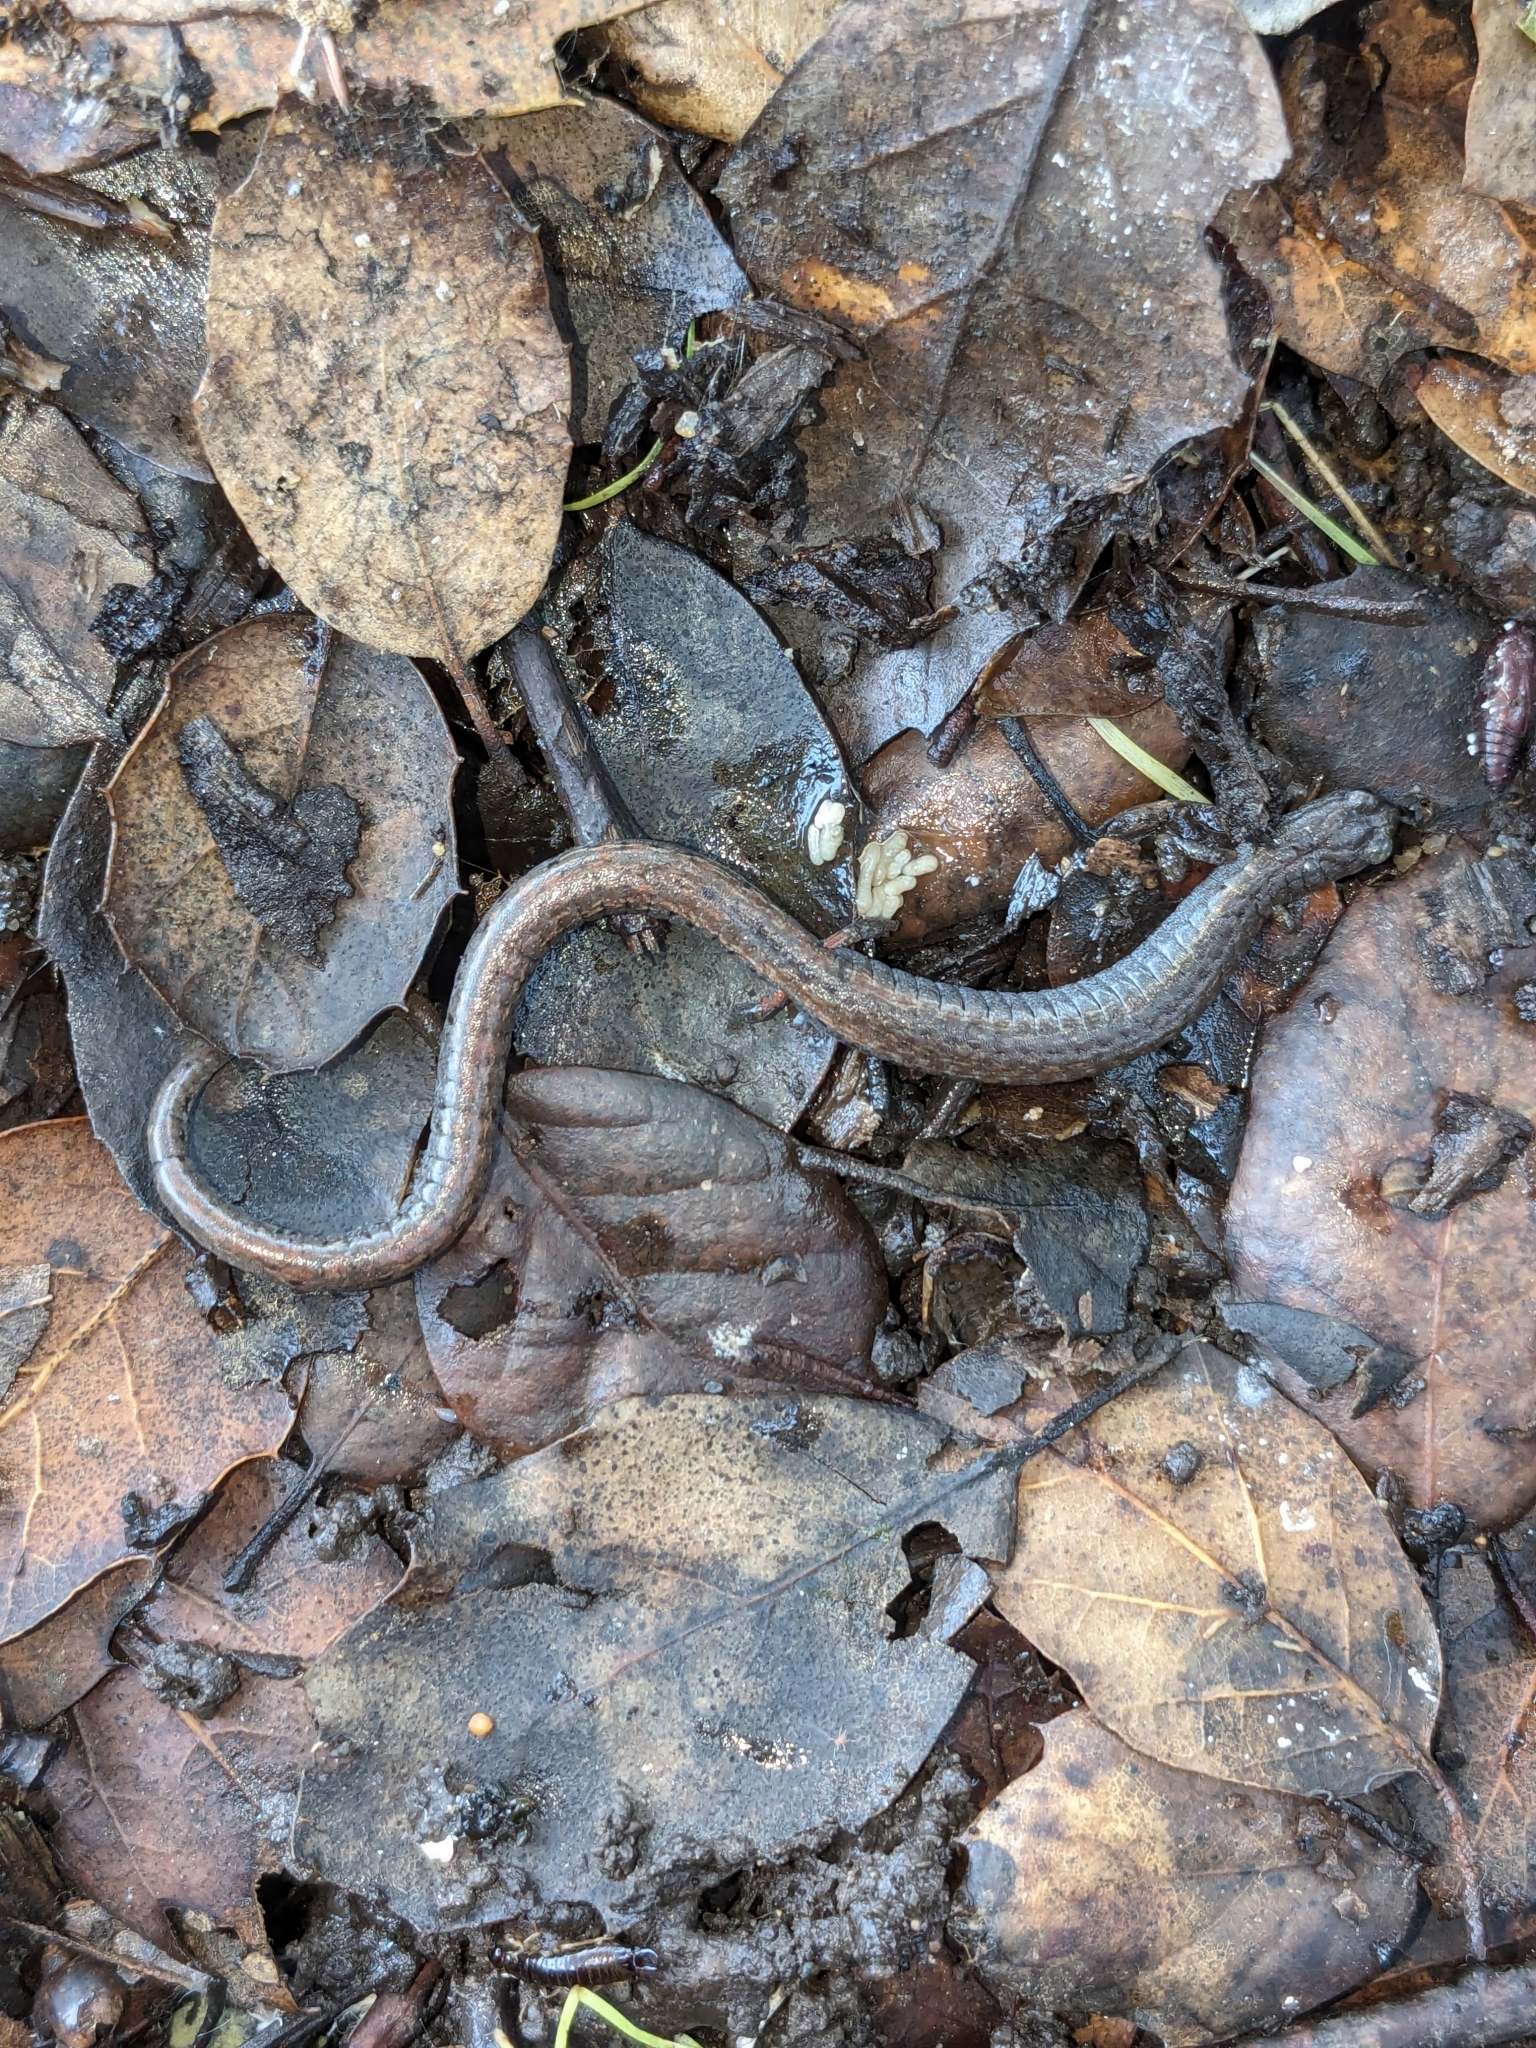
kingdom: Animalia
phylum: Chordata
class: Amphibia
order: Caudata
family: Plethodontidae
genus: Batrachoseps
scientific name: Batrachoseps attenuatus
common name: California slender salamander
